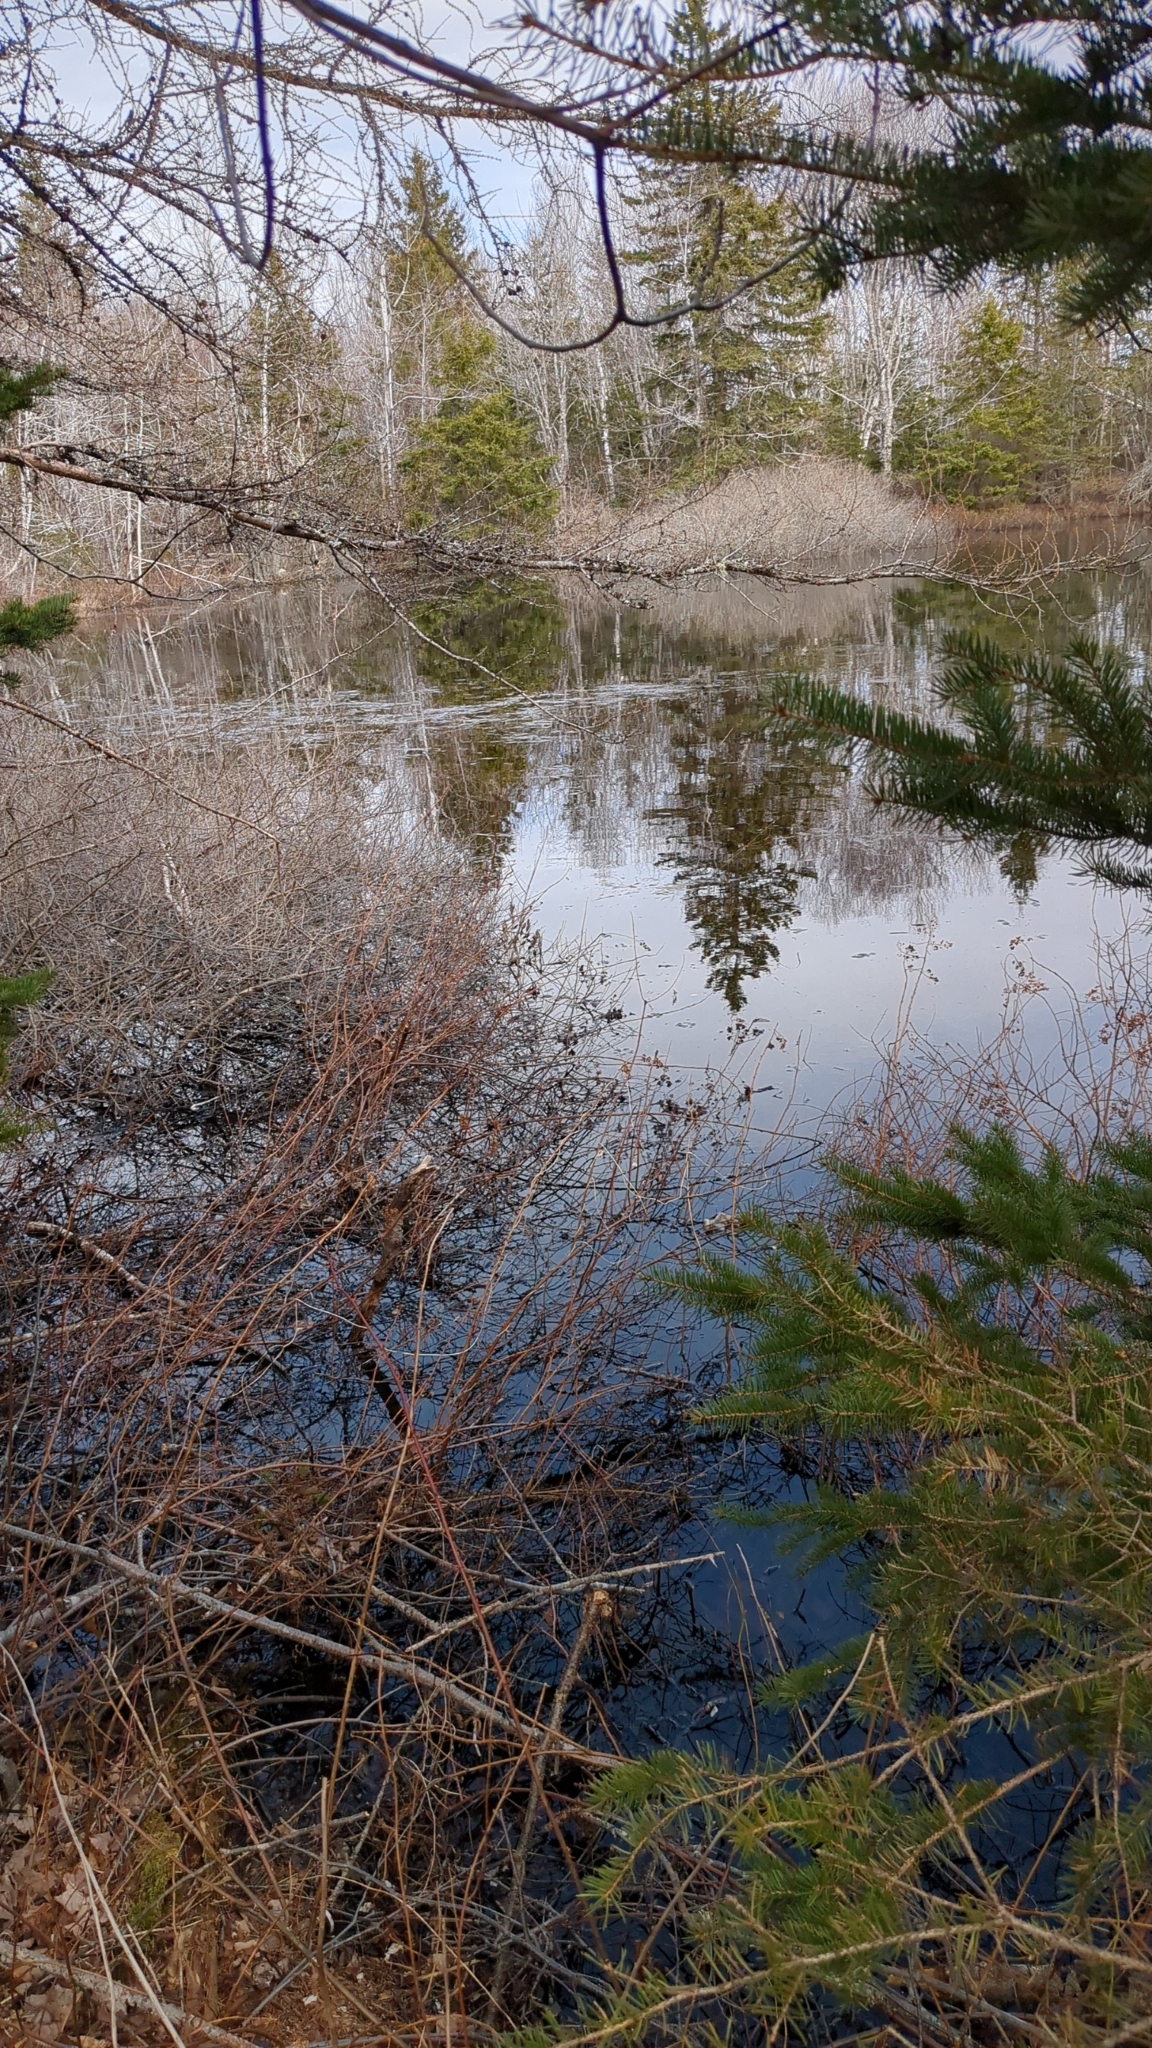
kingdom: Animalia
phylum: Chordata
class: Amphibia
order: Anura
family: Ranidae
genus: Lithobates
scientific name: Lithobates sylvaticus
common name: Wood frog
